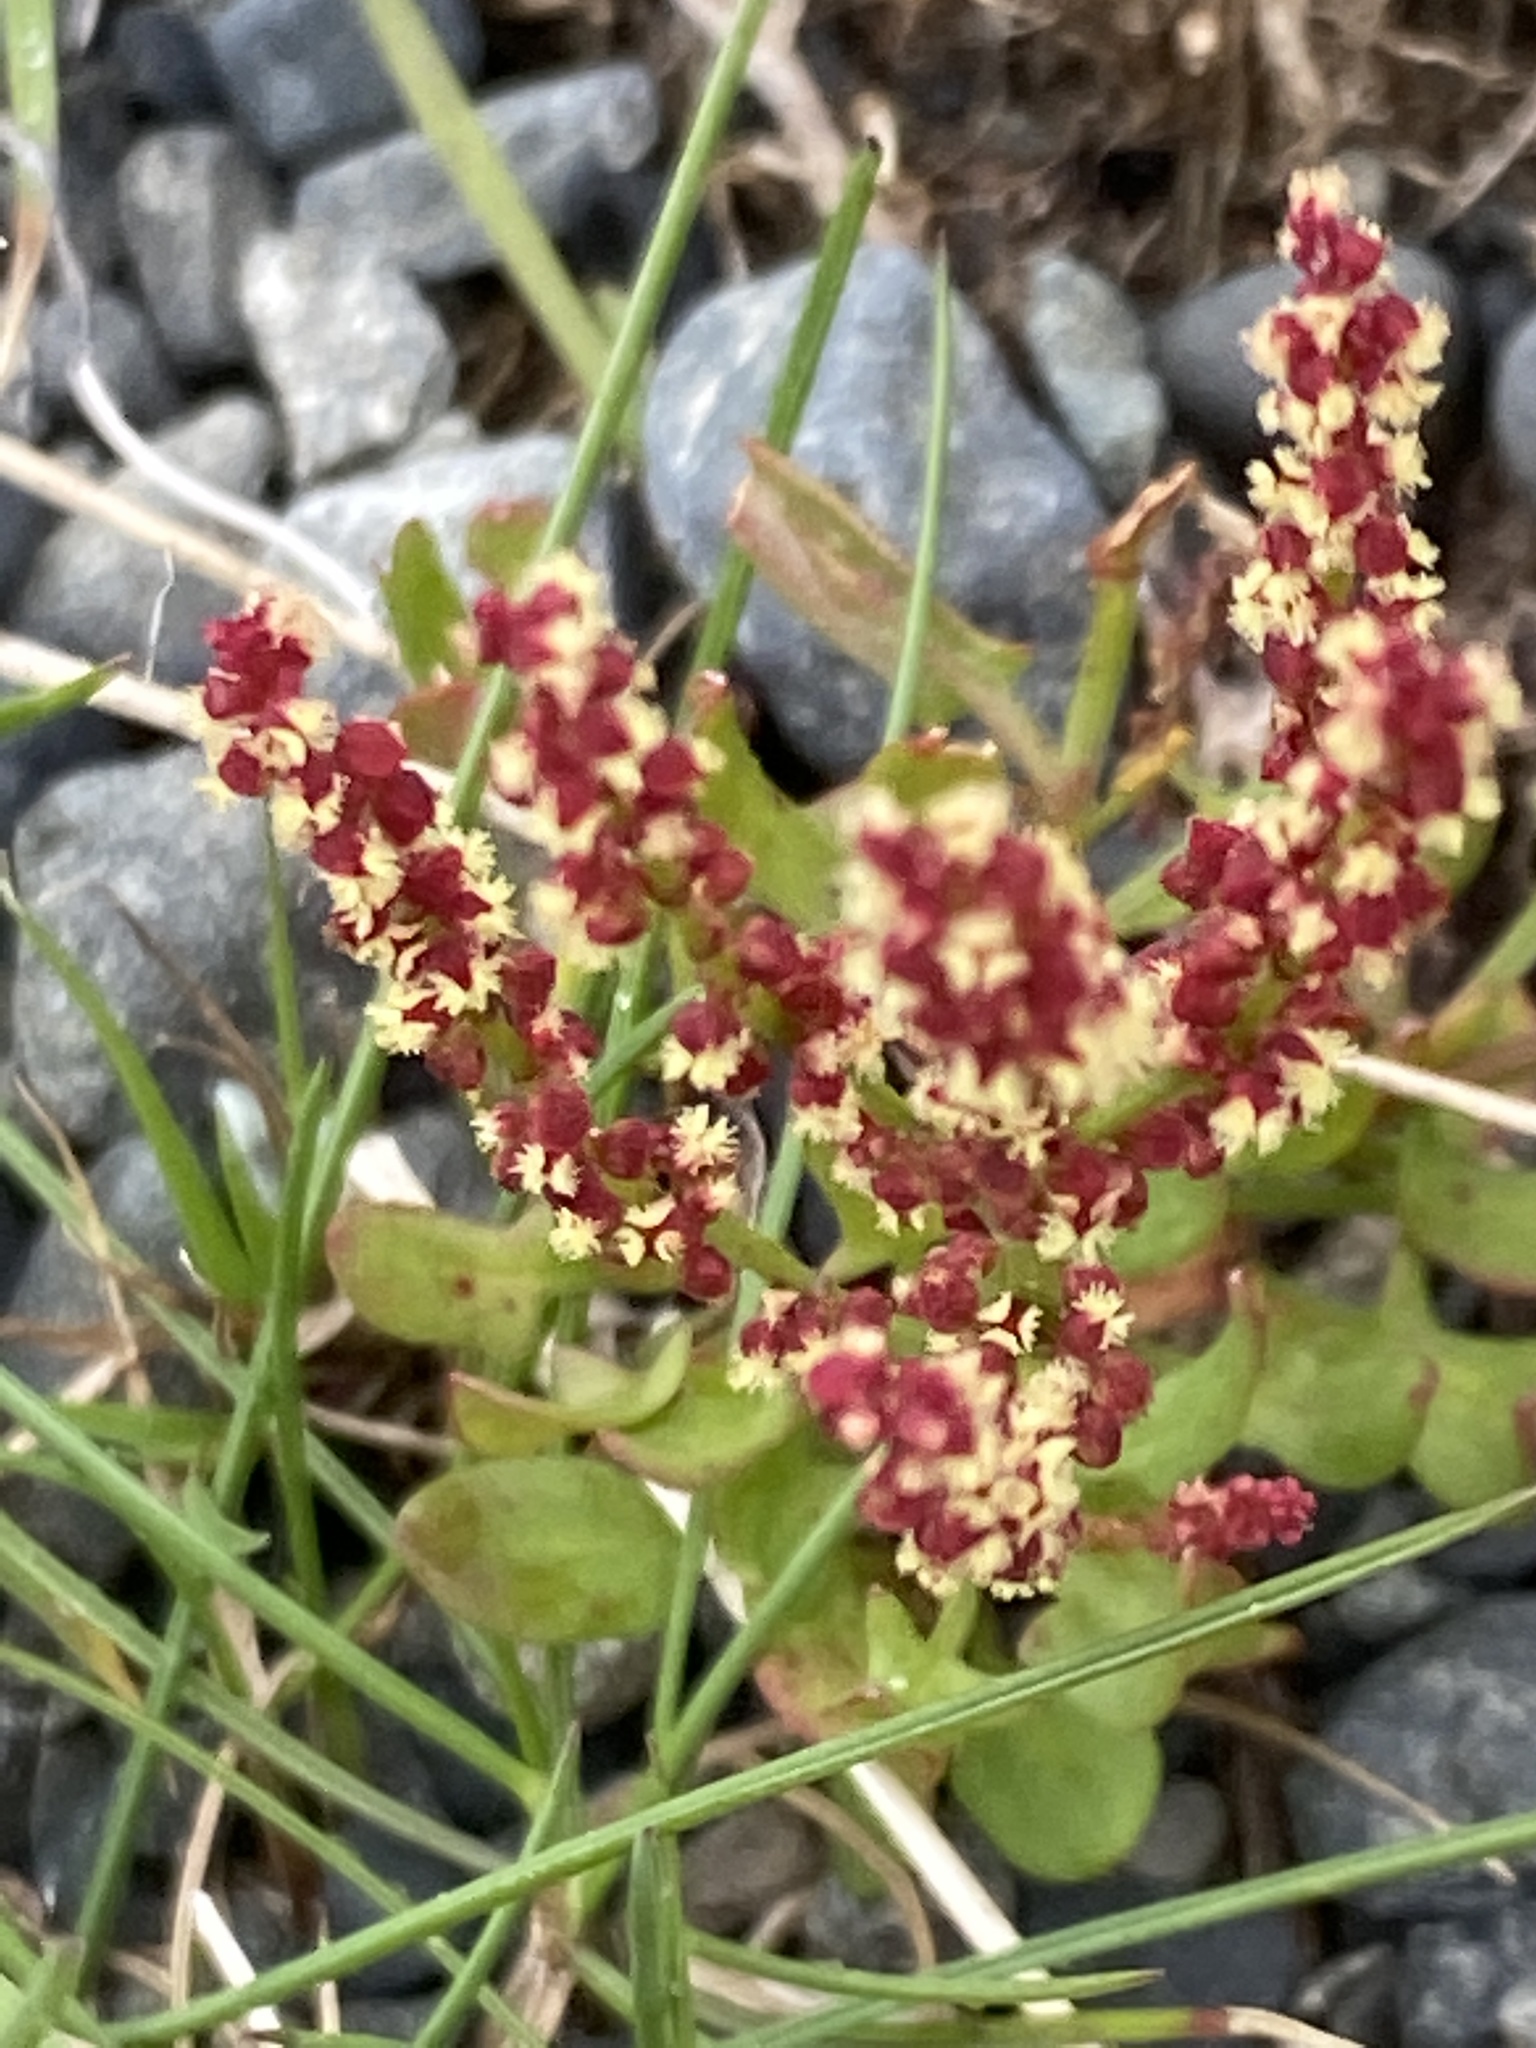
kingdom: Plantae
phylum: Tracheophyta
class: Magnoliopsida
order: Caryophyllales
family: Polygonaceae
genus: Rumex
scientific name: Rumex acetosella
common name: Common sheep sorrel
